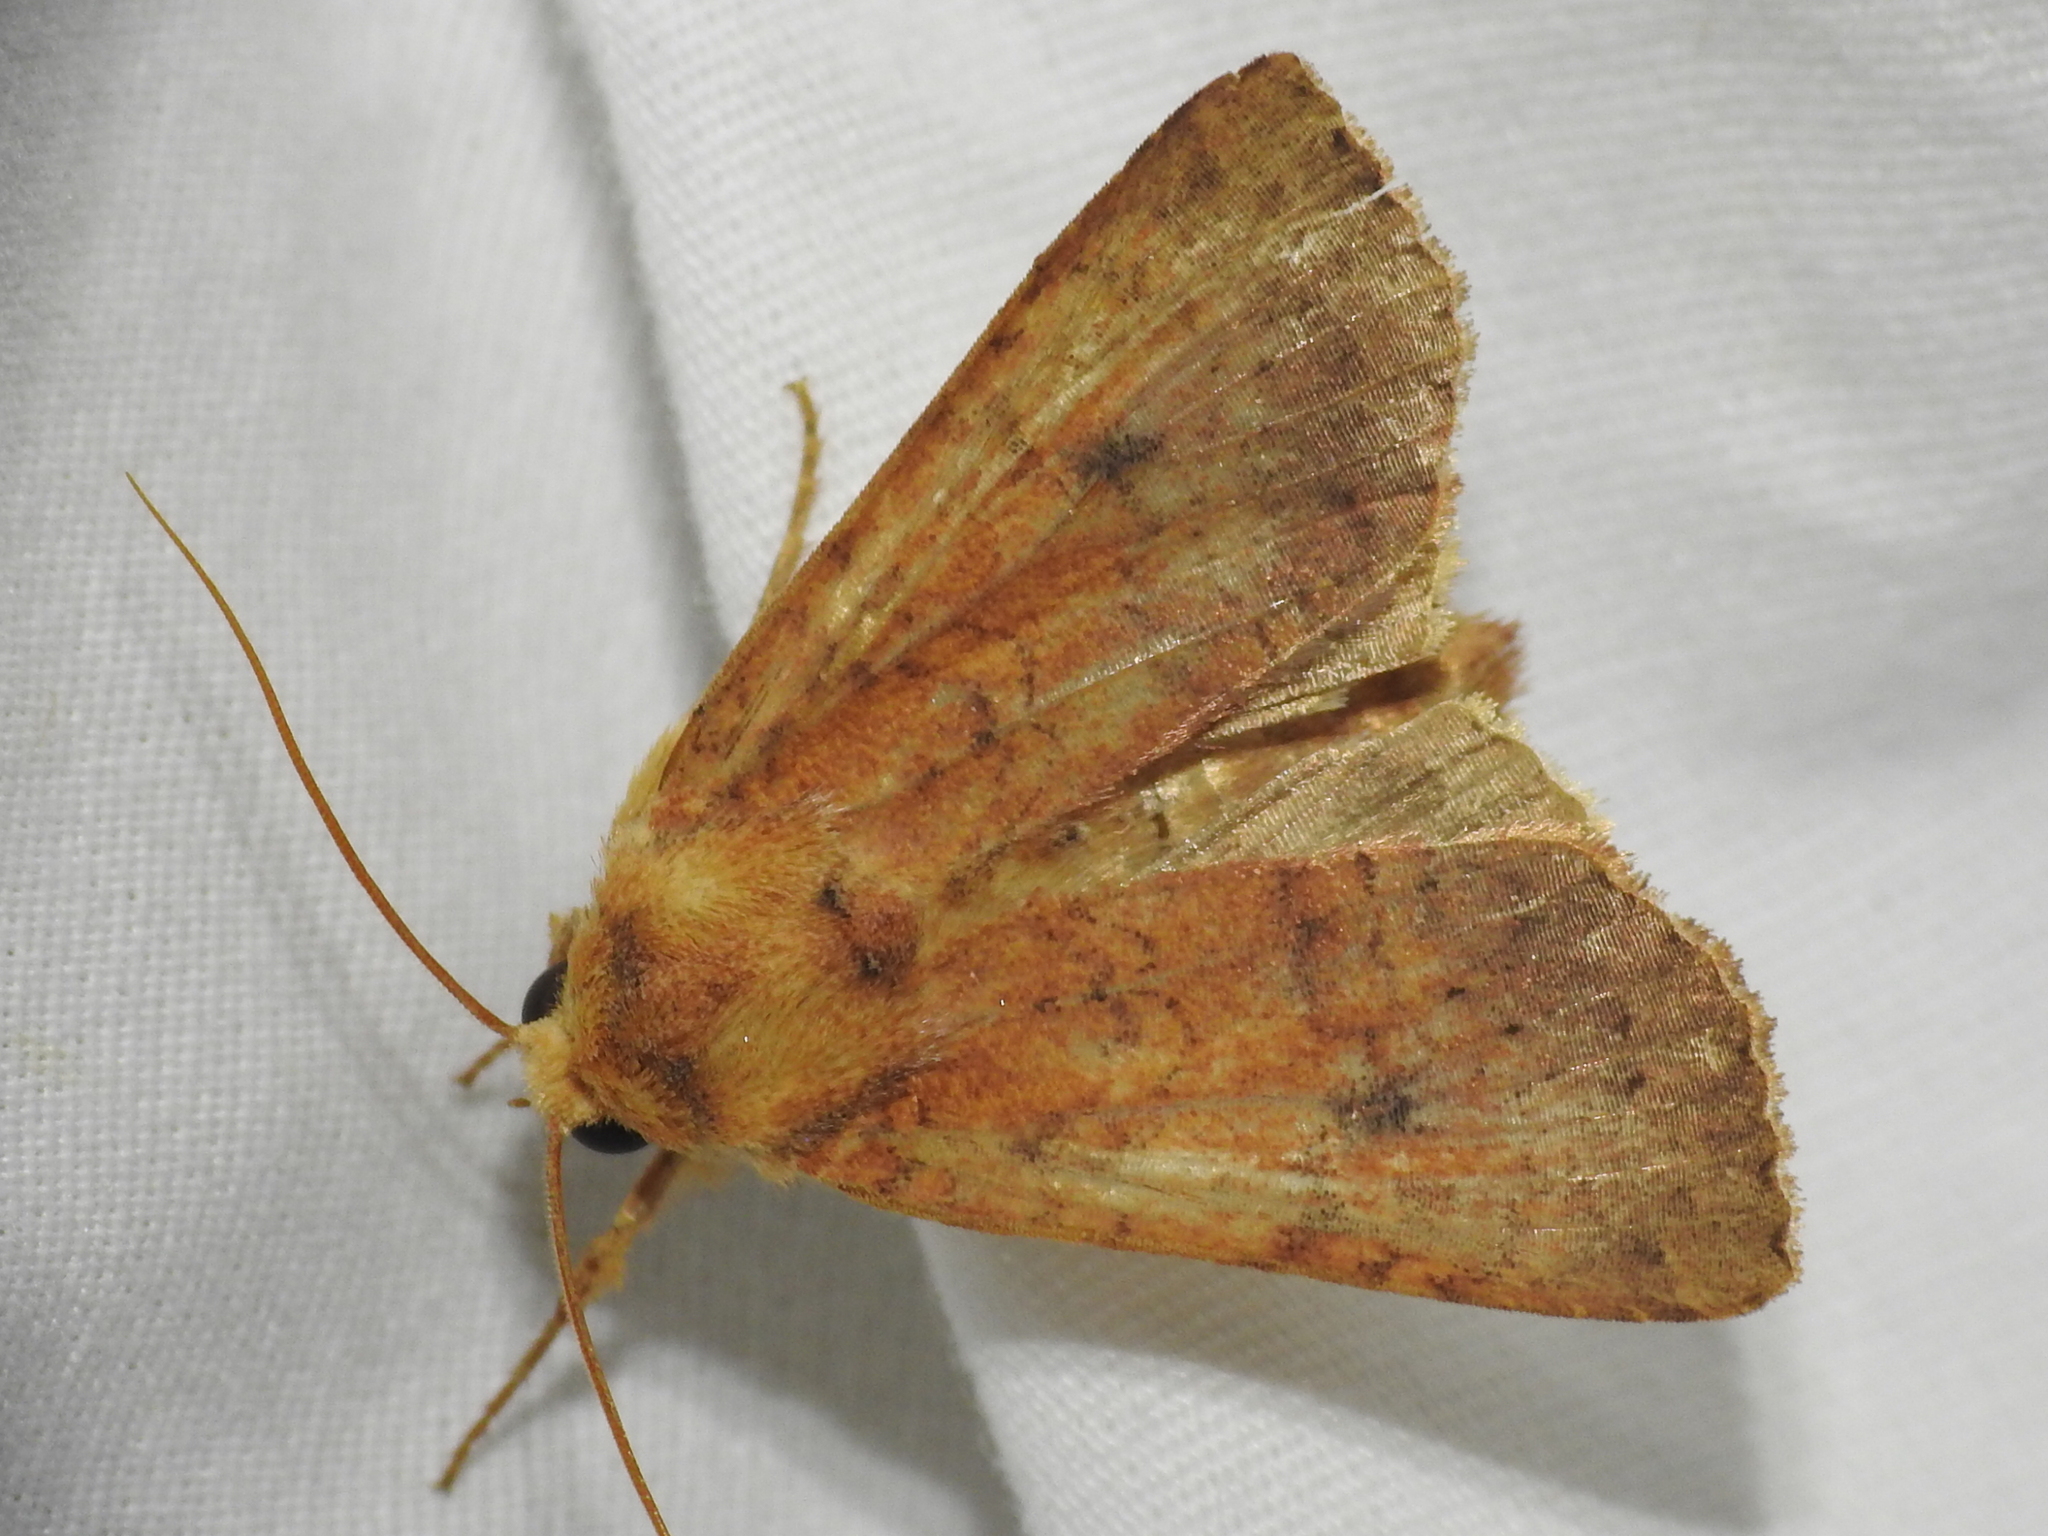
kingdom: Animalia
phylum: Arthropoda
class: Insecta
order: Lepidoptera
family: Noctuidae
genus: Apamea
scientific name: Apamea helva
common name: Yellow three-spot
